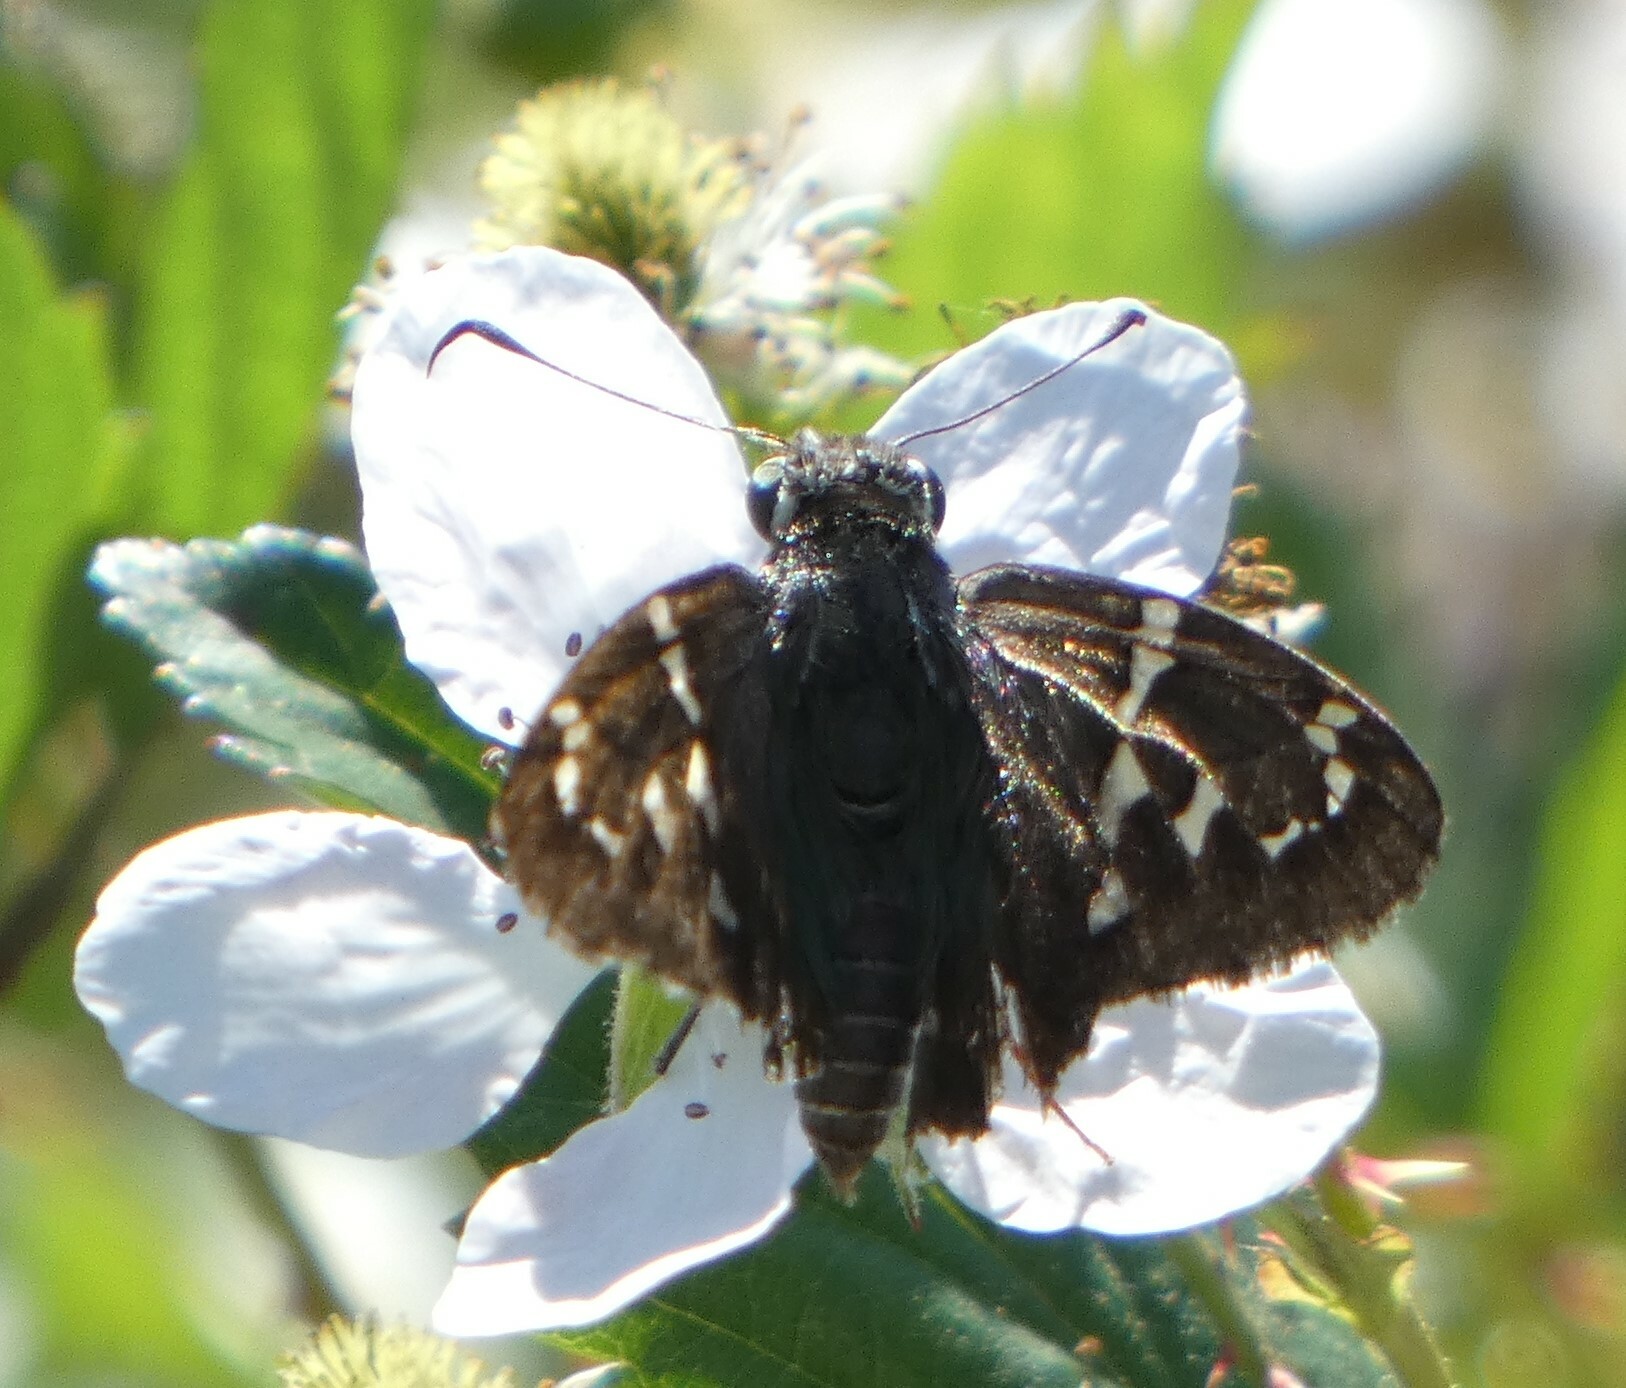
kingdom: Animalia
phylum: Arthropoda
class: Insecta
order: Lepidoptera
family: Hesperiidae
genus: Urbanus
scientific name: Urbanus proteus
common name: Long-tailed skipper
